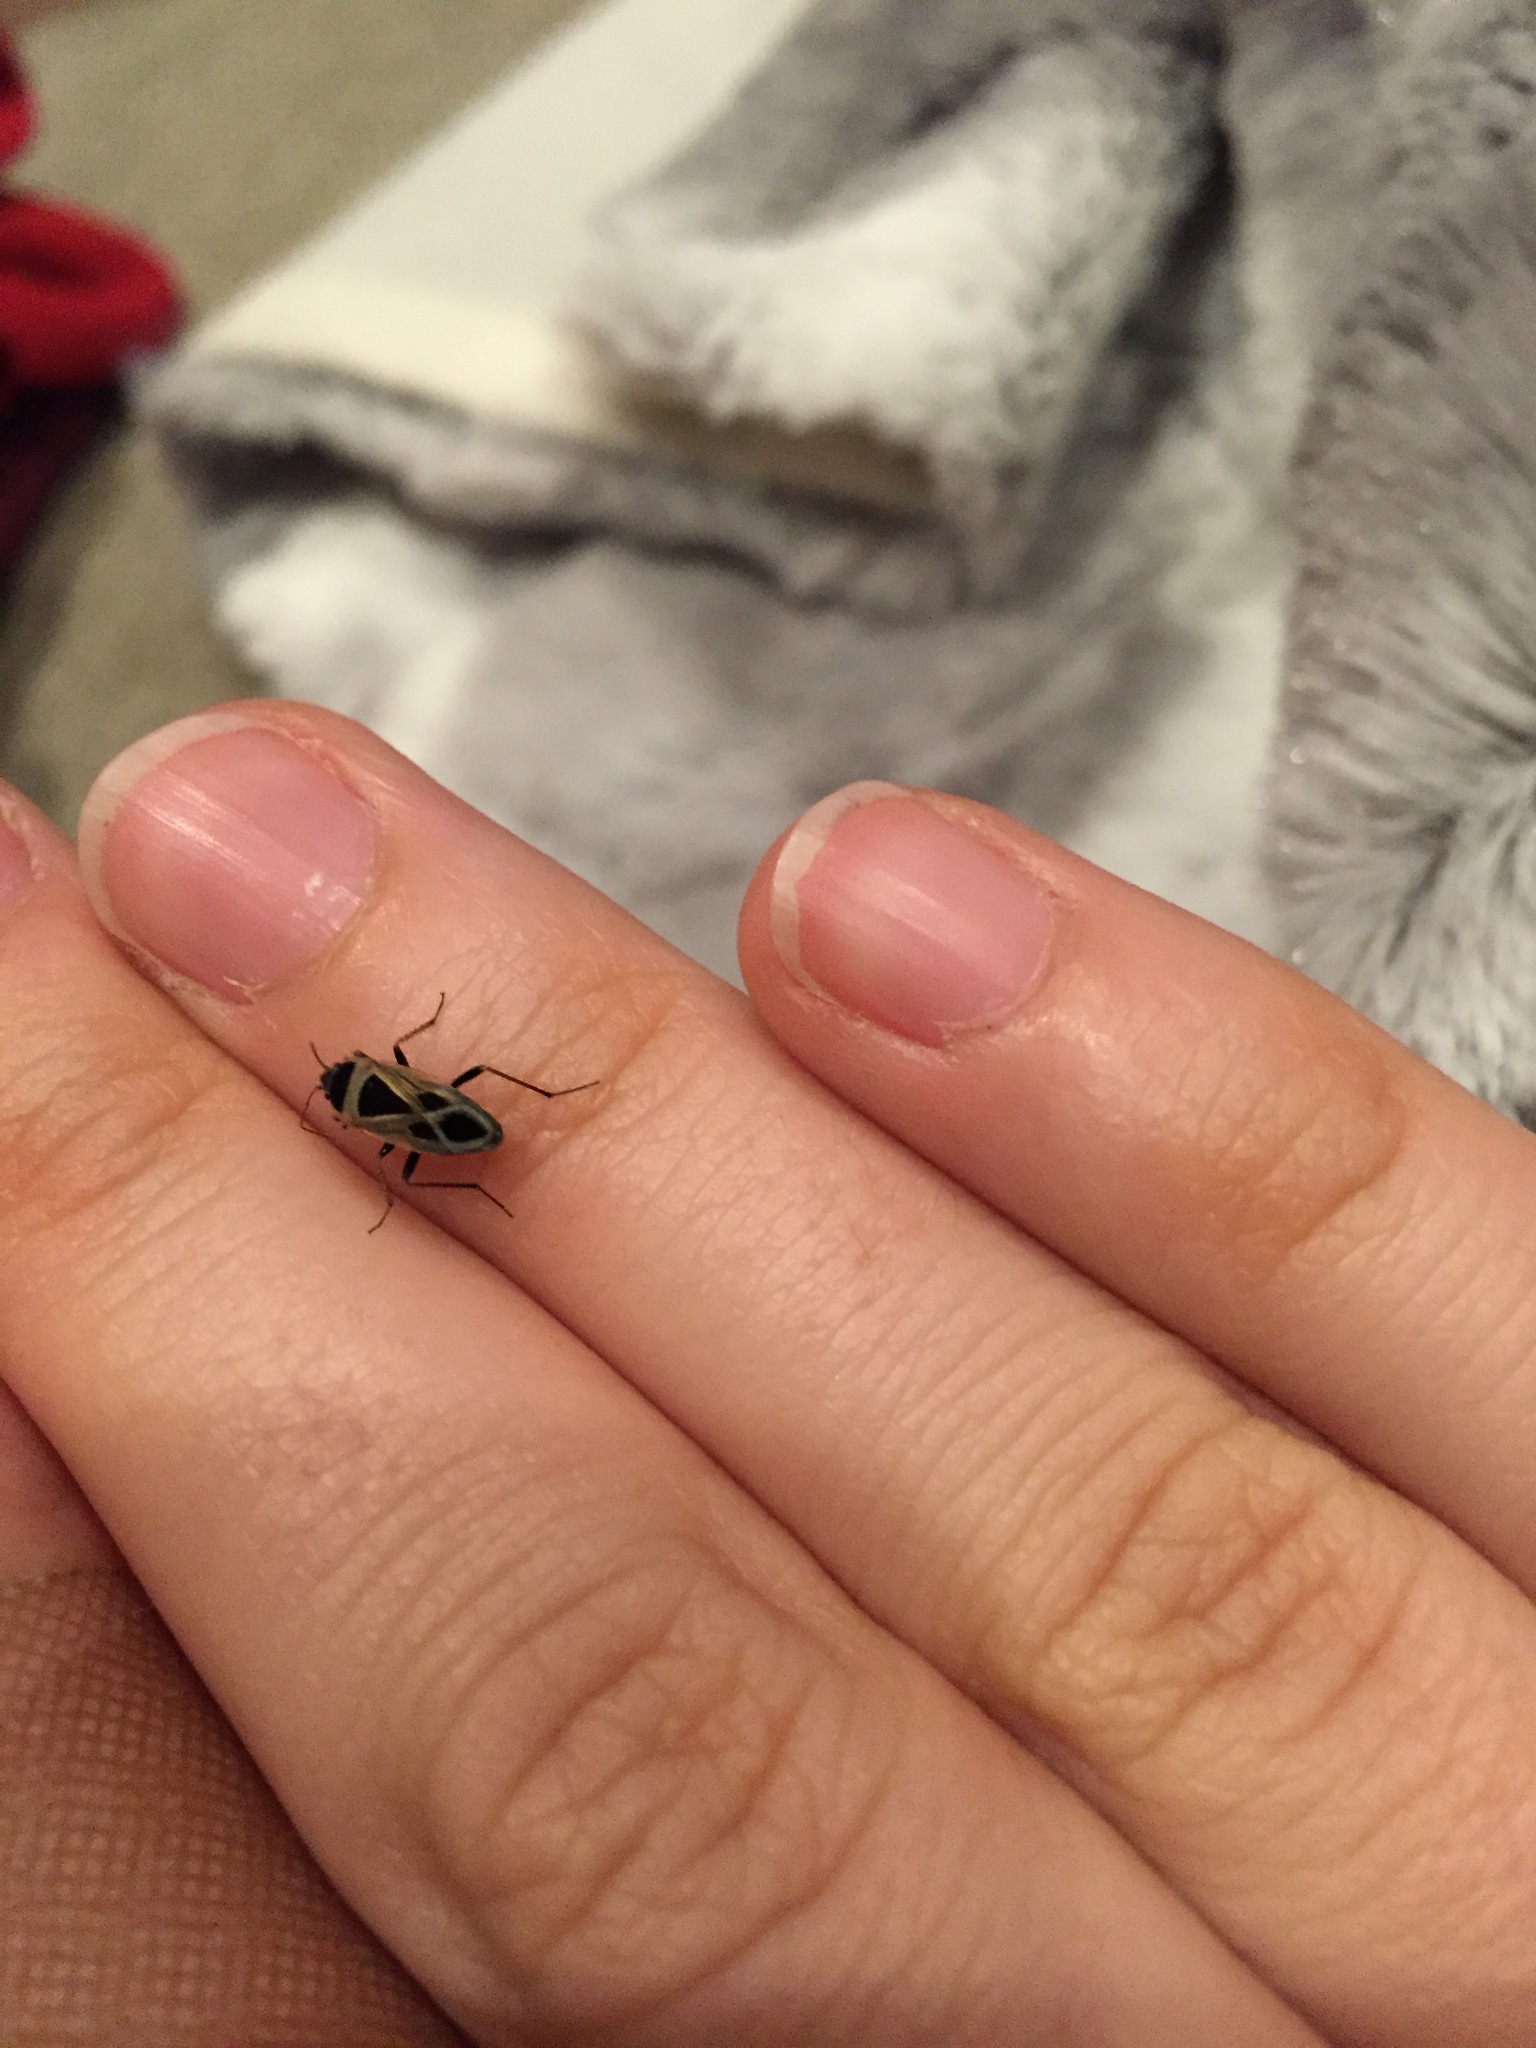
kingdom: Animalia
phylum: Arthropoda
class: Insecta
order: Hemiptera
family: Rhyparochromidae
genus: Xanthochilus
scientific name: Xanthochilus saturnius
